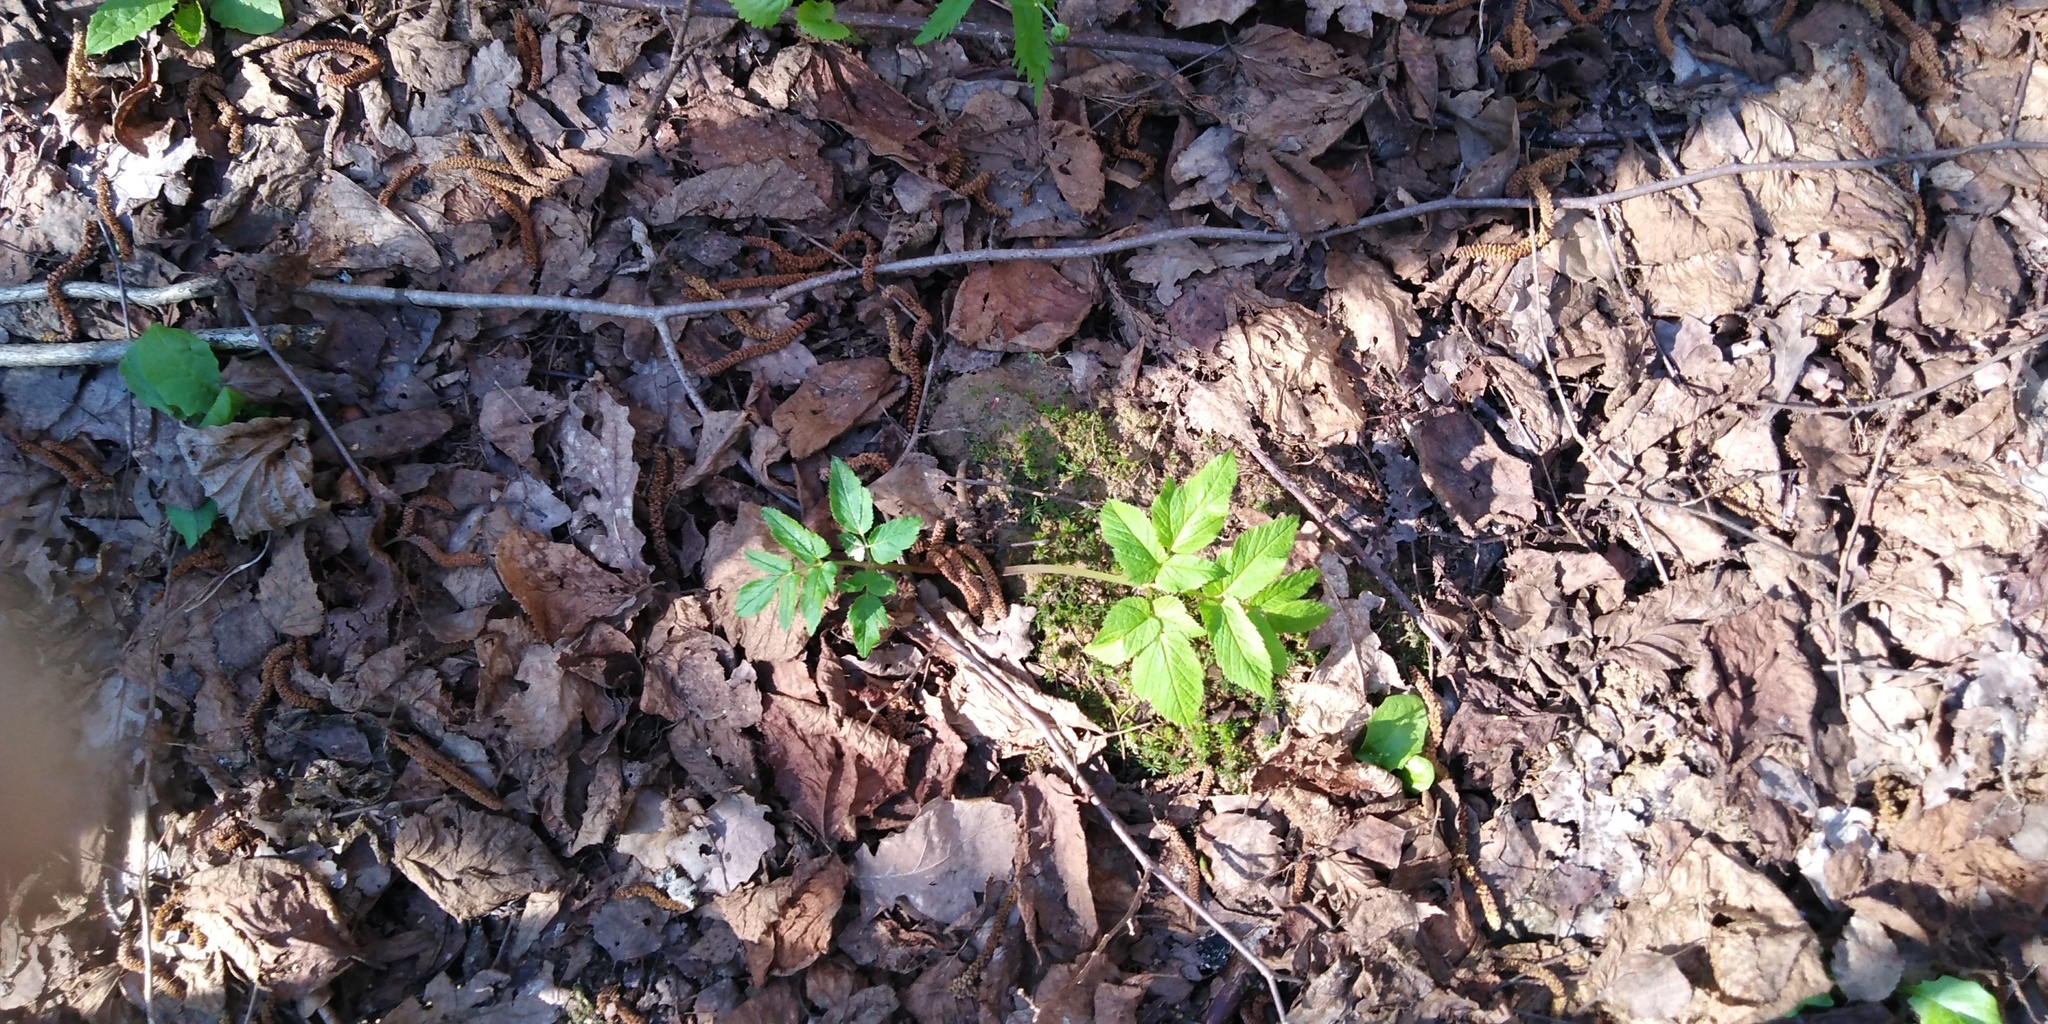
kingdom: Plantae
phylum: Tracheophyta
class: Magnoliopsida
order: Apiales
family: Apiaceae
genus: Aegopodium
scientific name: Aegopodium podagraria
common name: Ground-elder
